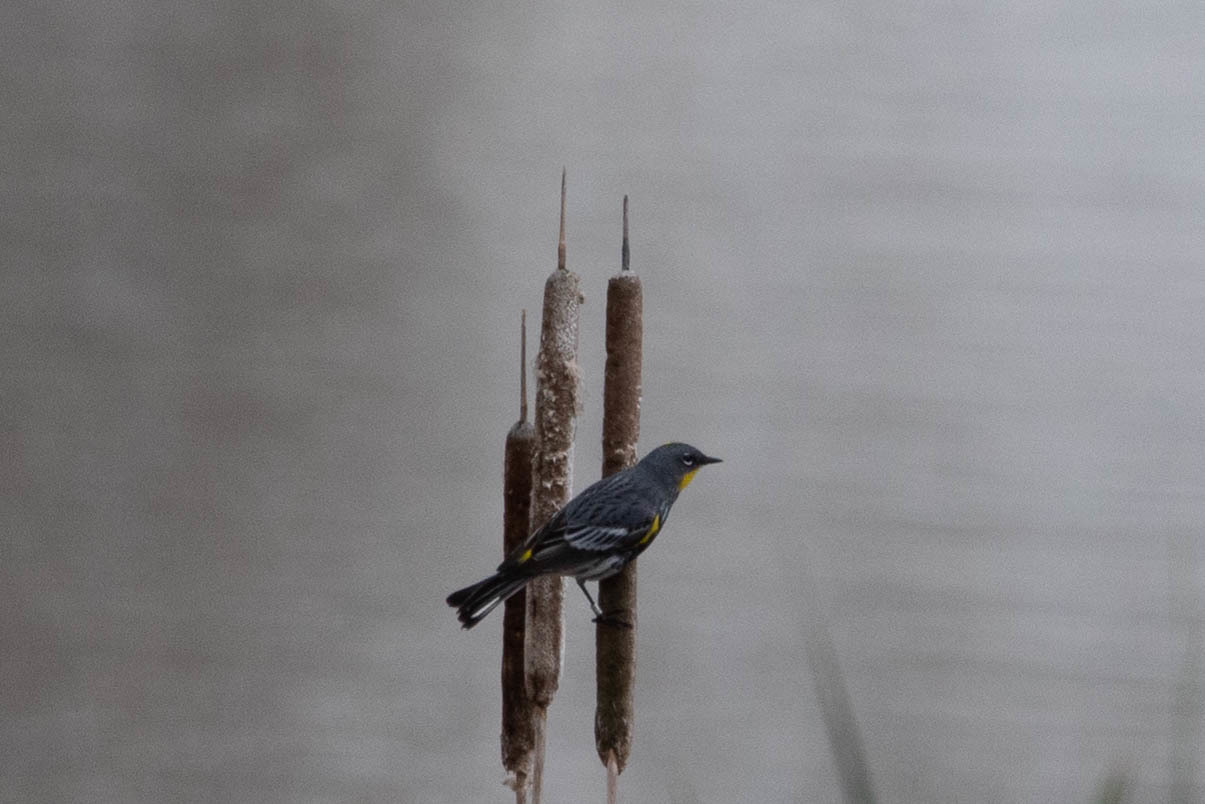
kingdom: Animalia
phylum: Chordata
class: Aves
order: Passeriformes
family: Parulidae
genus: Setophaga
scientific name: Setophaga auduboni
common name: Audubon's warbler
